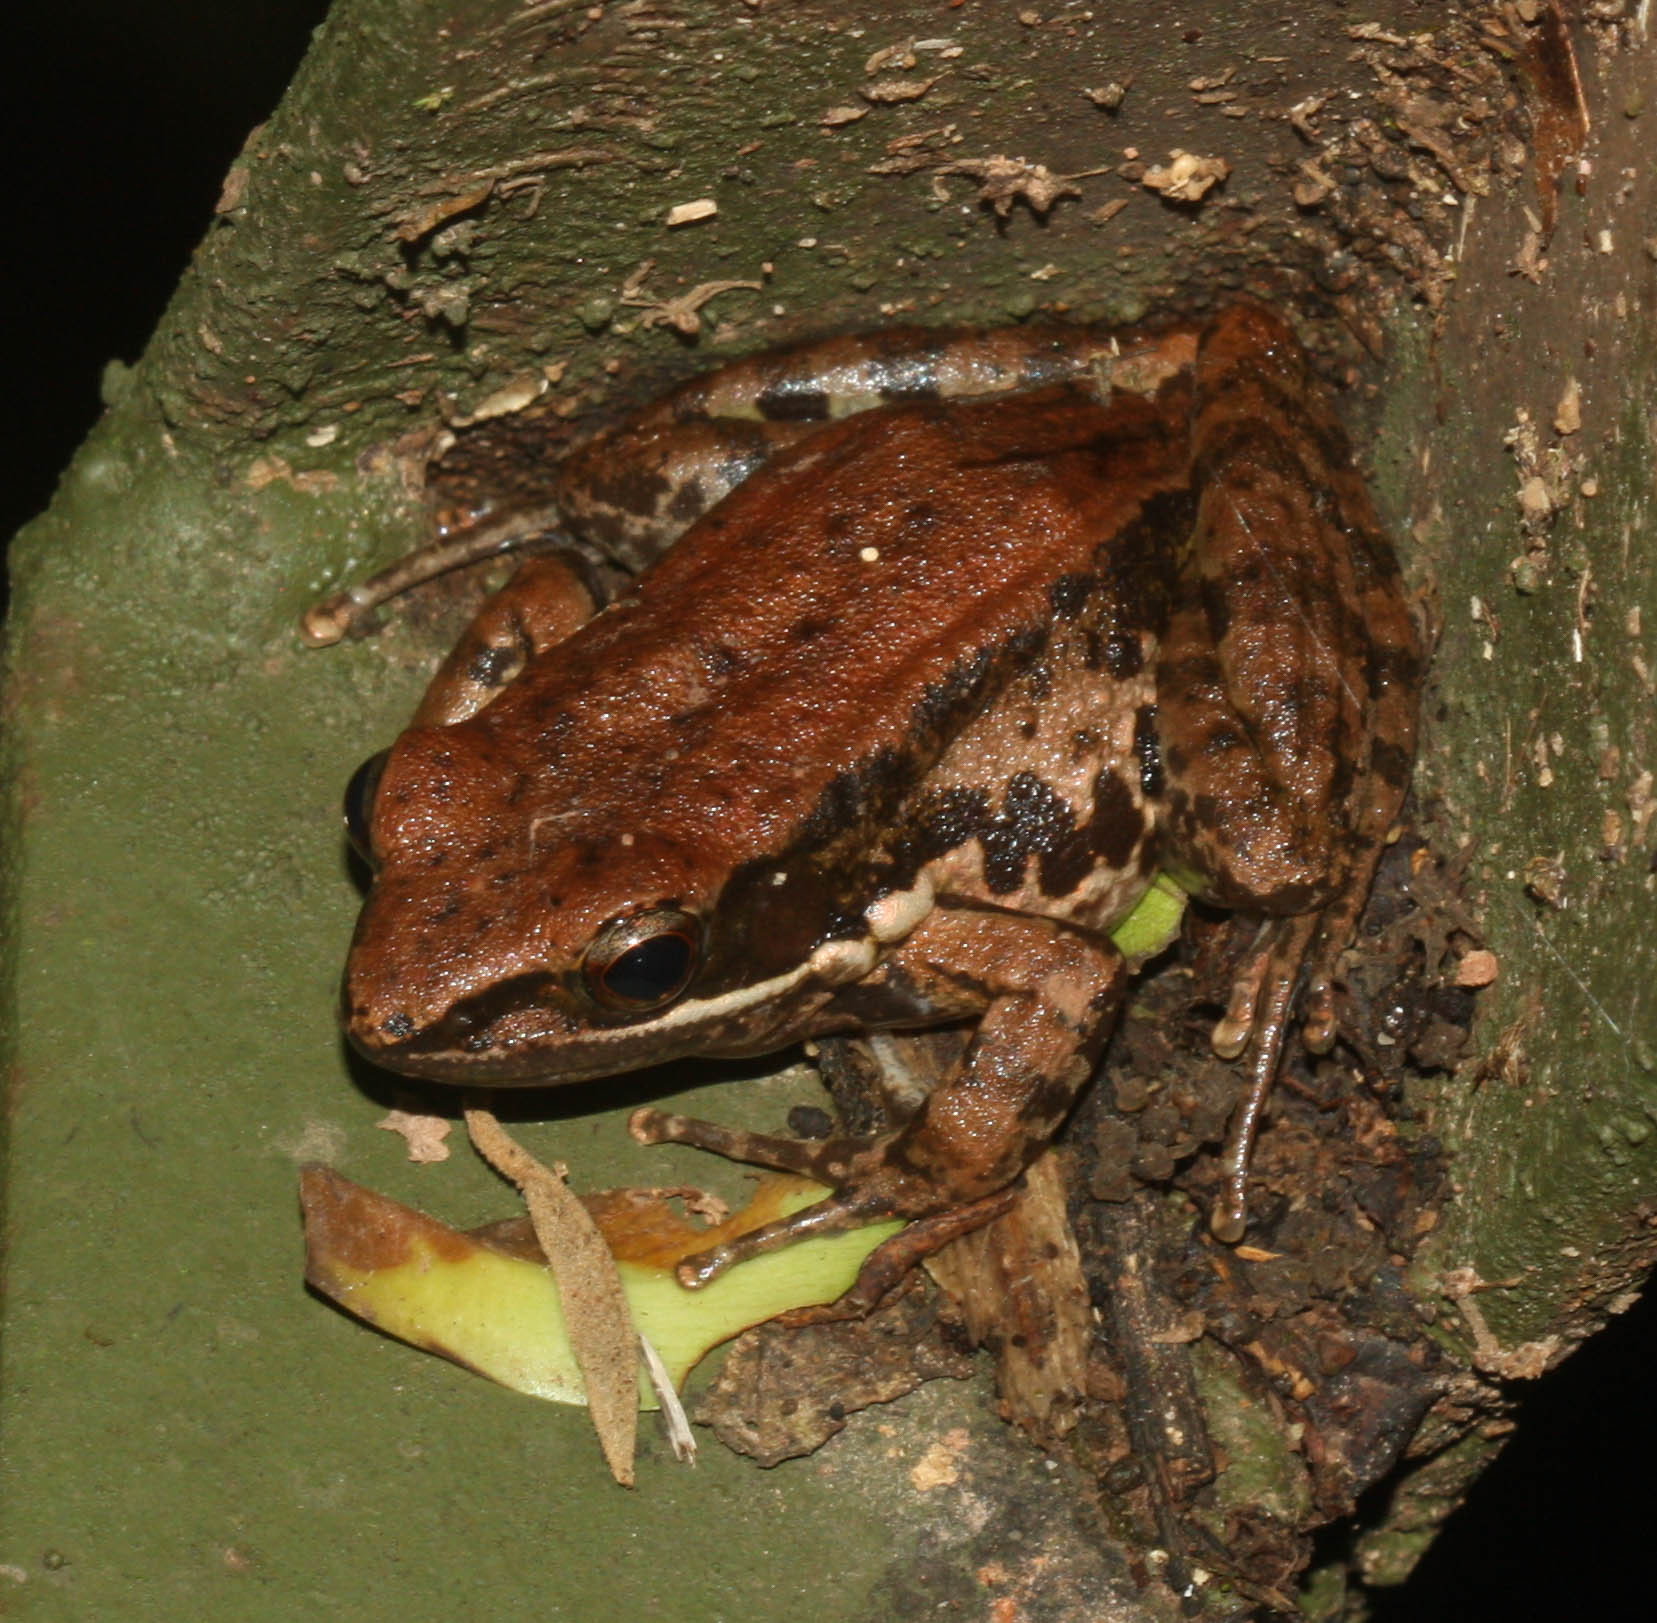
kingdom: Animalia
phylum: Chordata
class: Amphibia
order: Anura
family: Ranidae
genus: Sylvirana
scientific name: Sylvirana nigrovittata
